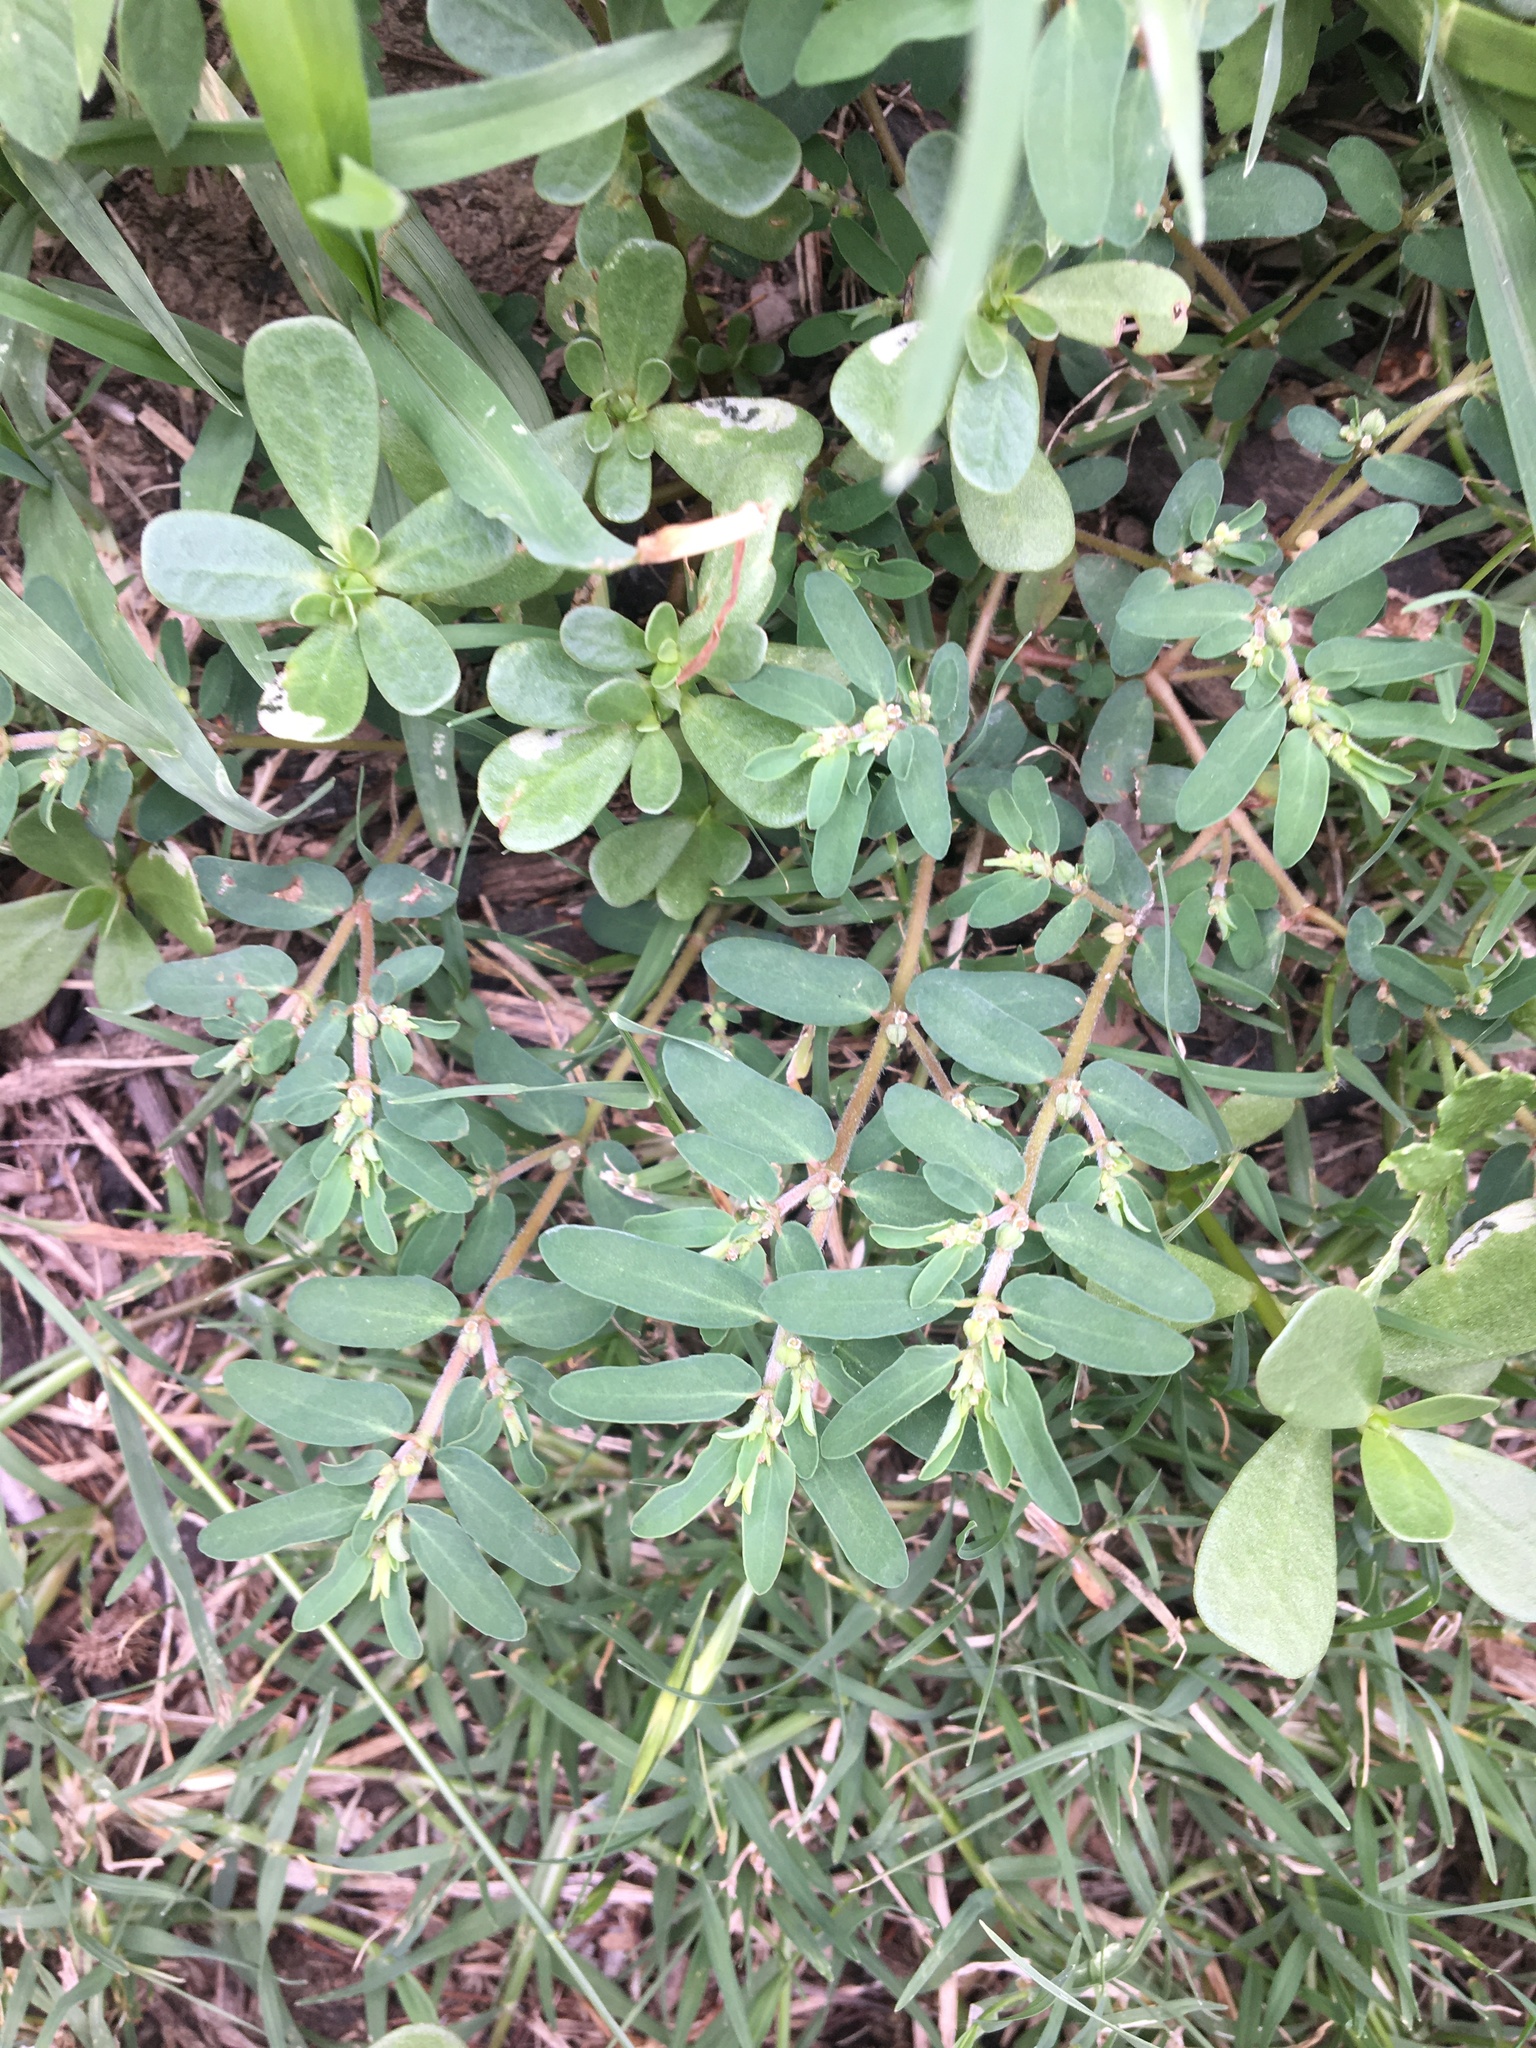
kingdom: Plantae
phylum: Tracheophyta
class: Magnoliopsida
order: Malpighiales
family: Euphorbiaceae
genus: Euphorbia
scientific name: Euphorbia maculata
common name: Spotted spurge
